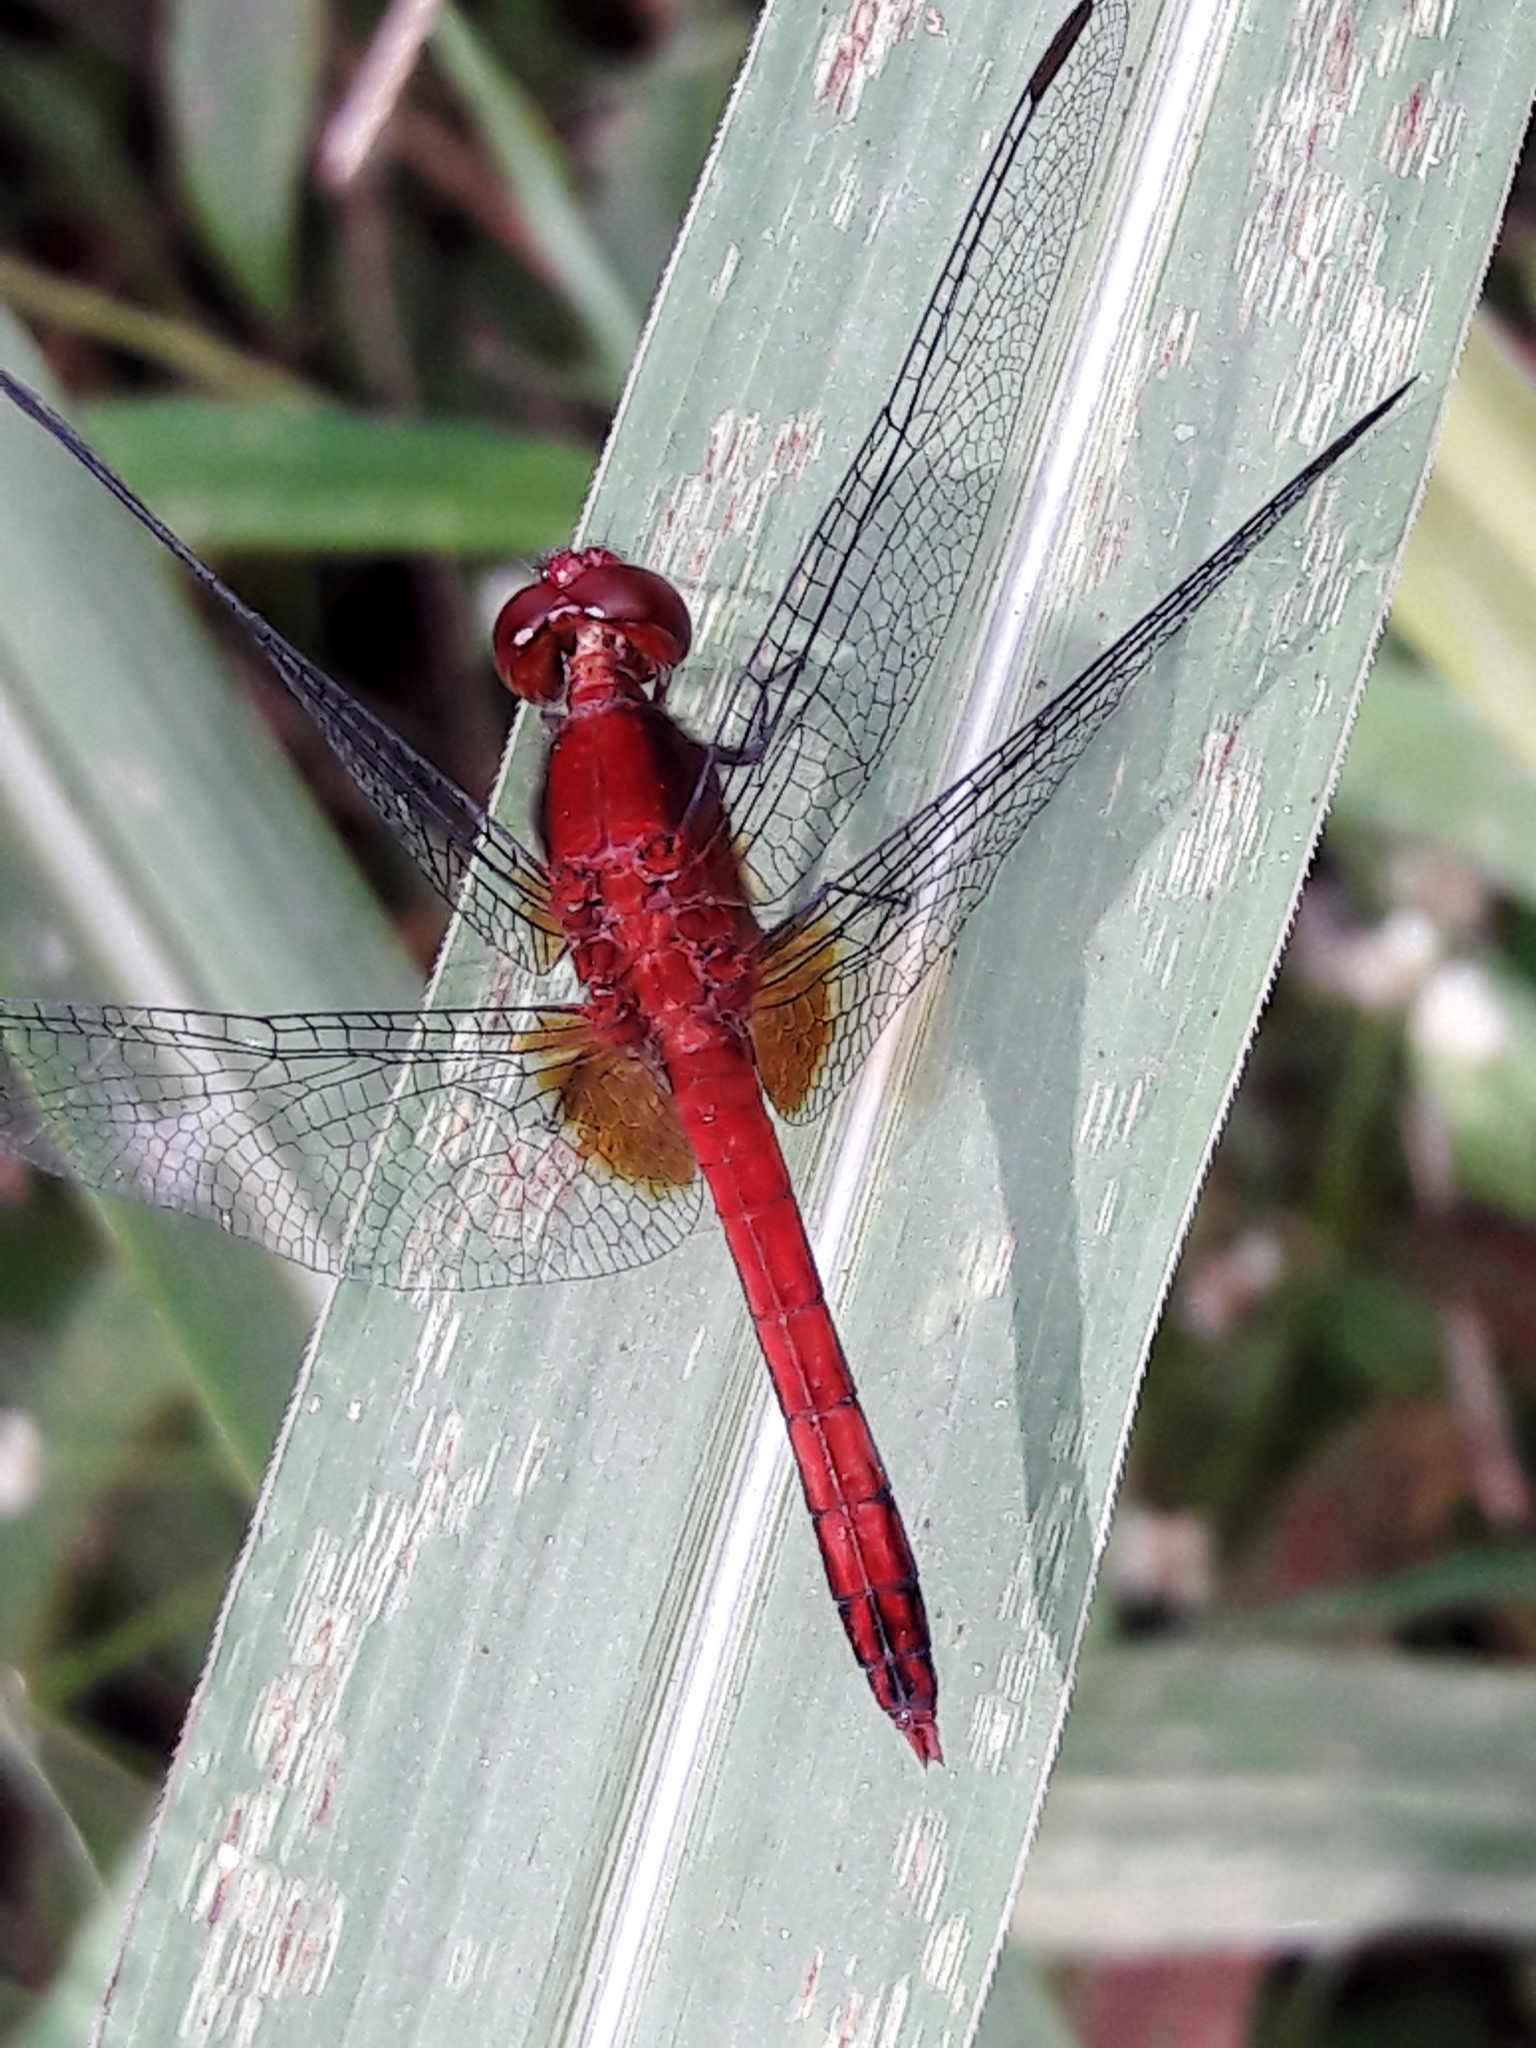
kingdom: Animalia
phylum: Arthropoda
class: Insecta
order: Odonata
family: Libellulidae
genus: Erythrodiplax
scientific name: Erythrodiplax fusca
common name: Red-faced dragonlet
